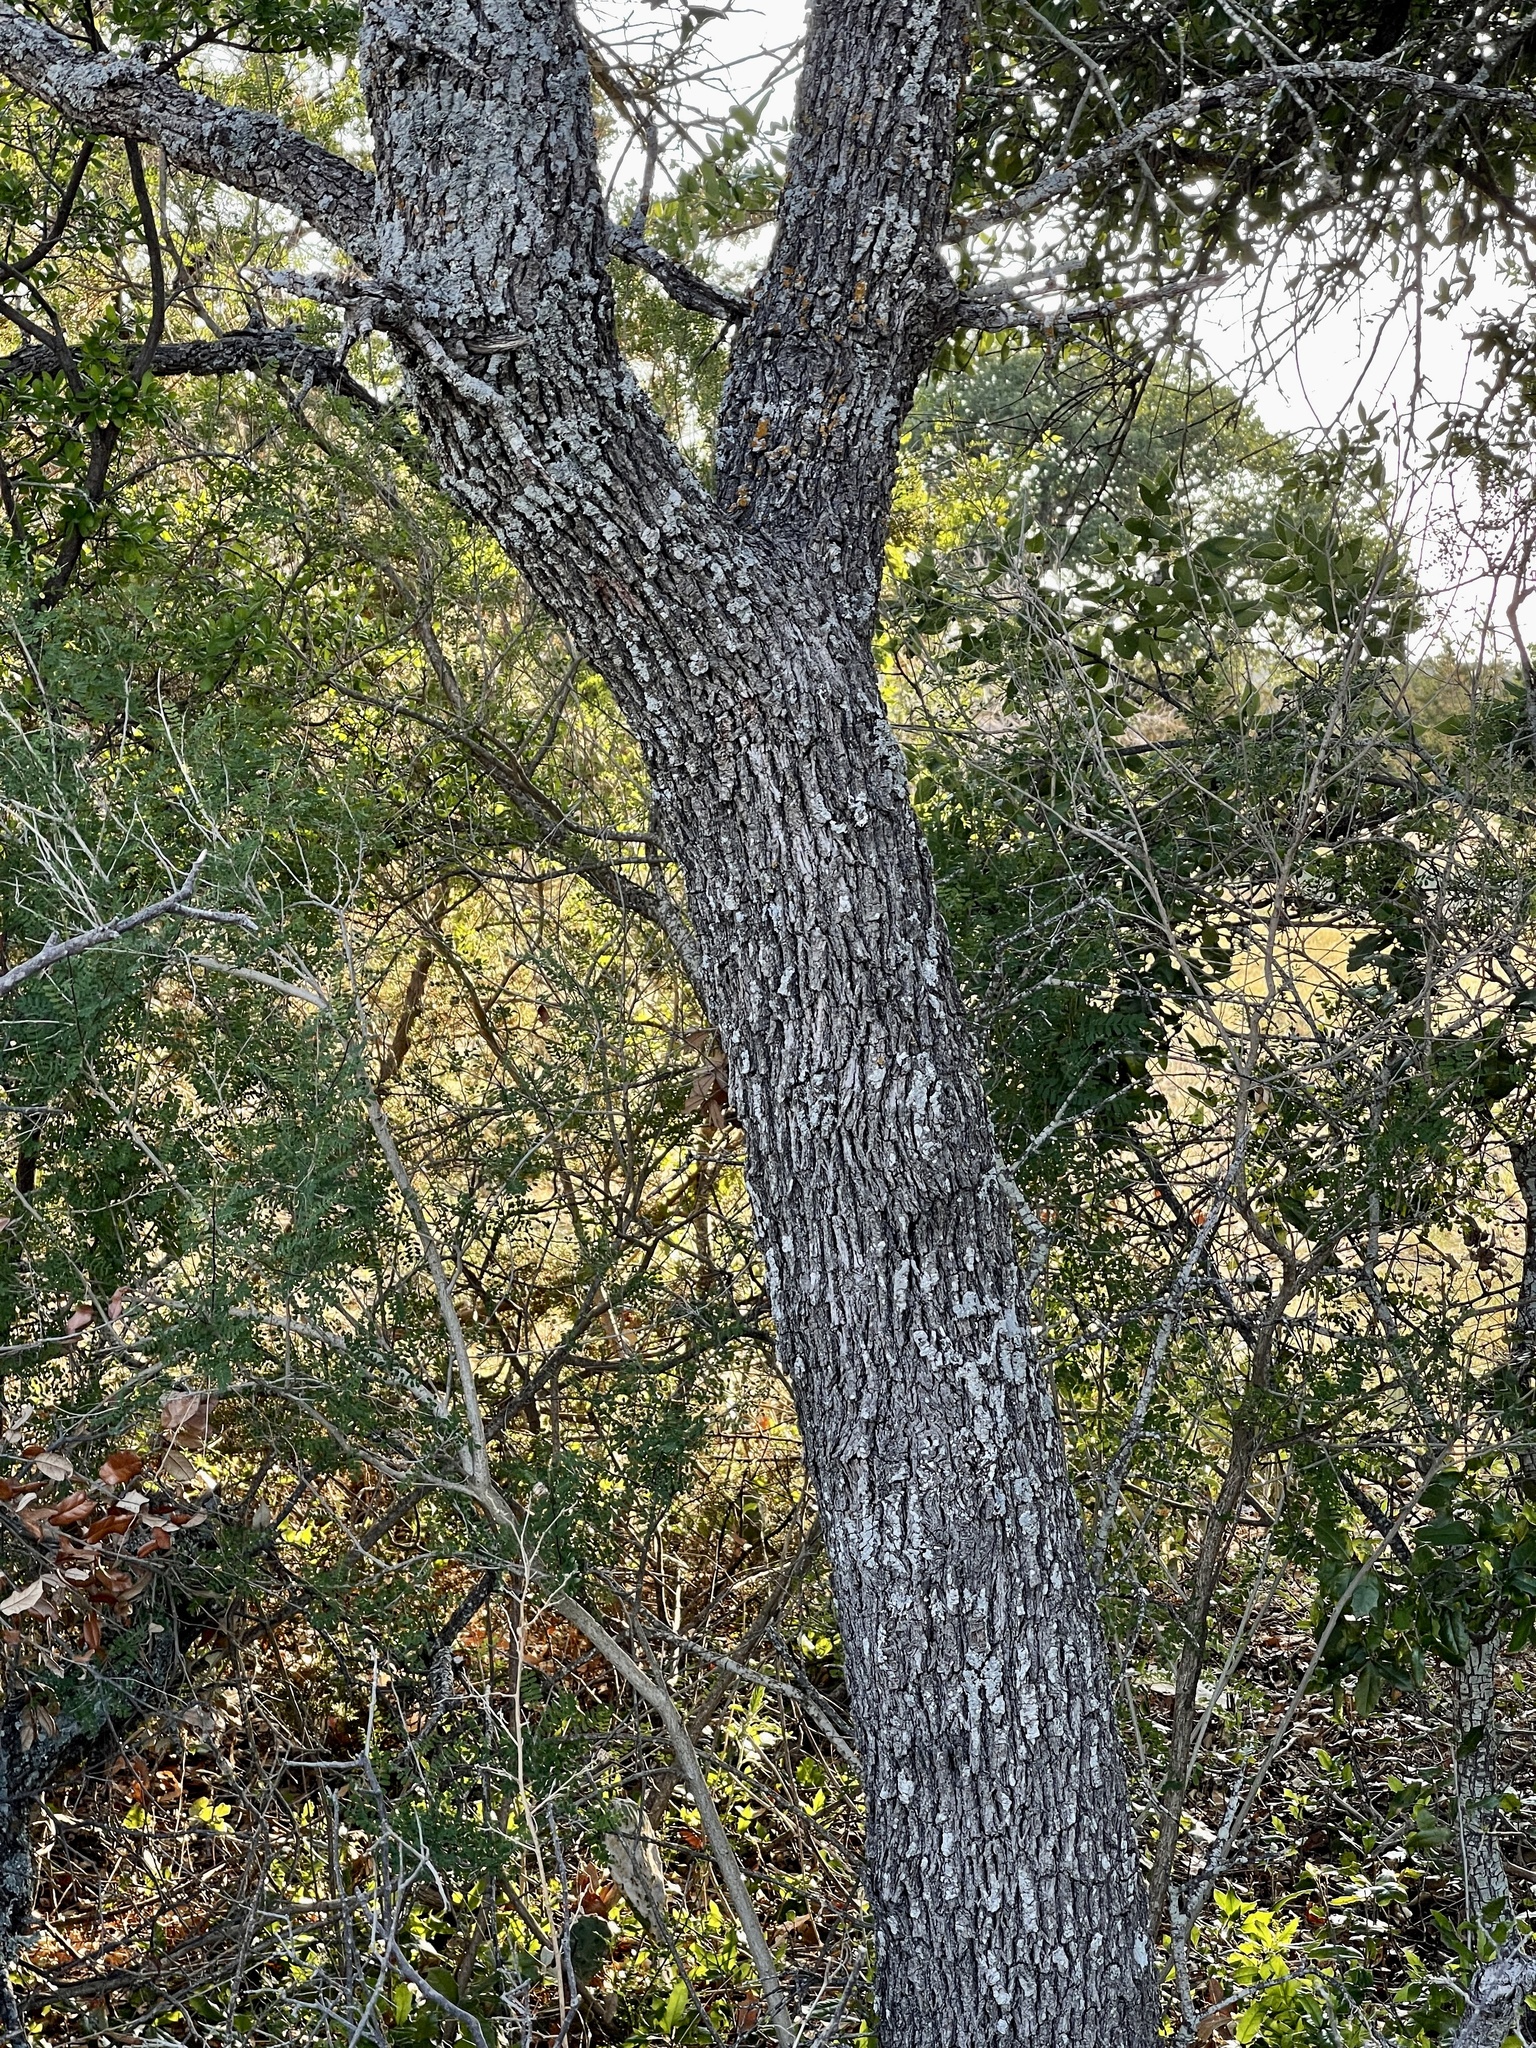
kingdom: Plantae
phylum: Tracheophyta
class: Magnoliopsida
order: Fagales
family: Fagaceae
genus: Quercus
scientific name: Quercus fusiformis
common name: Texas live oak
